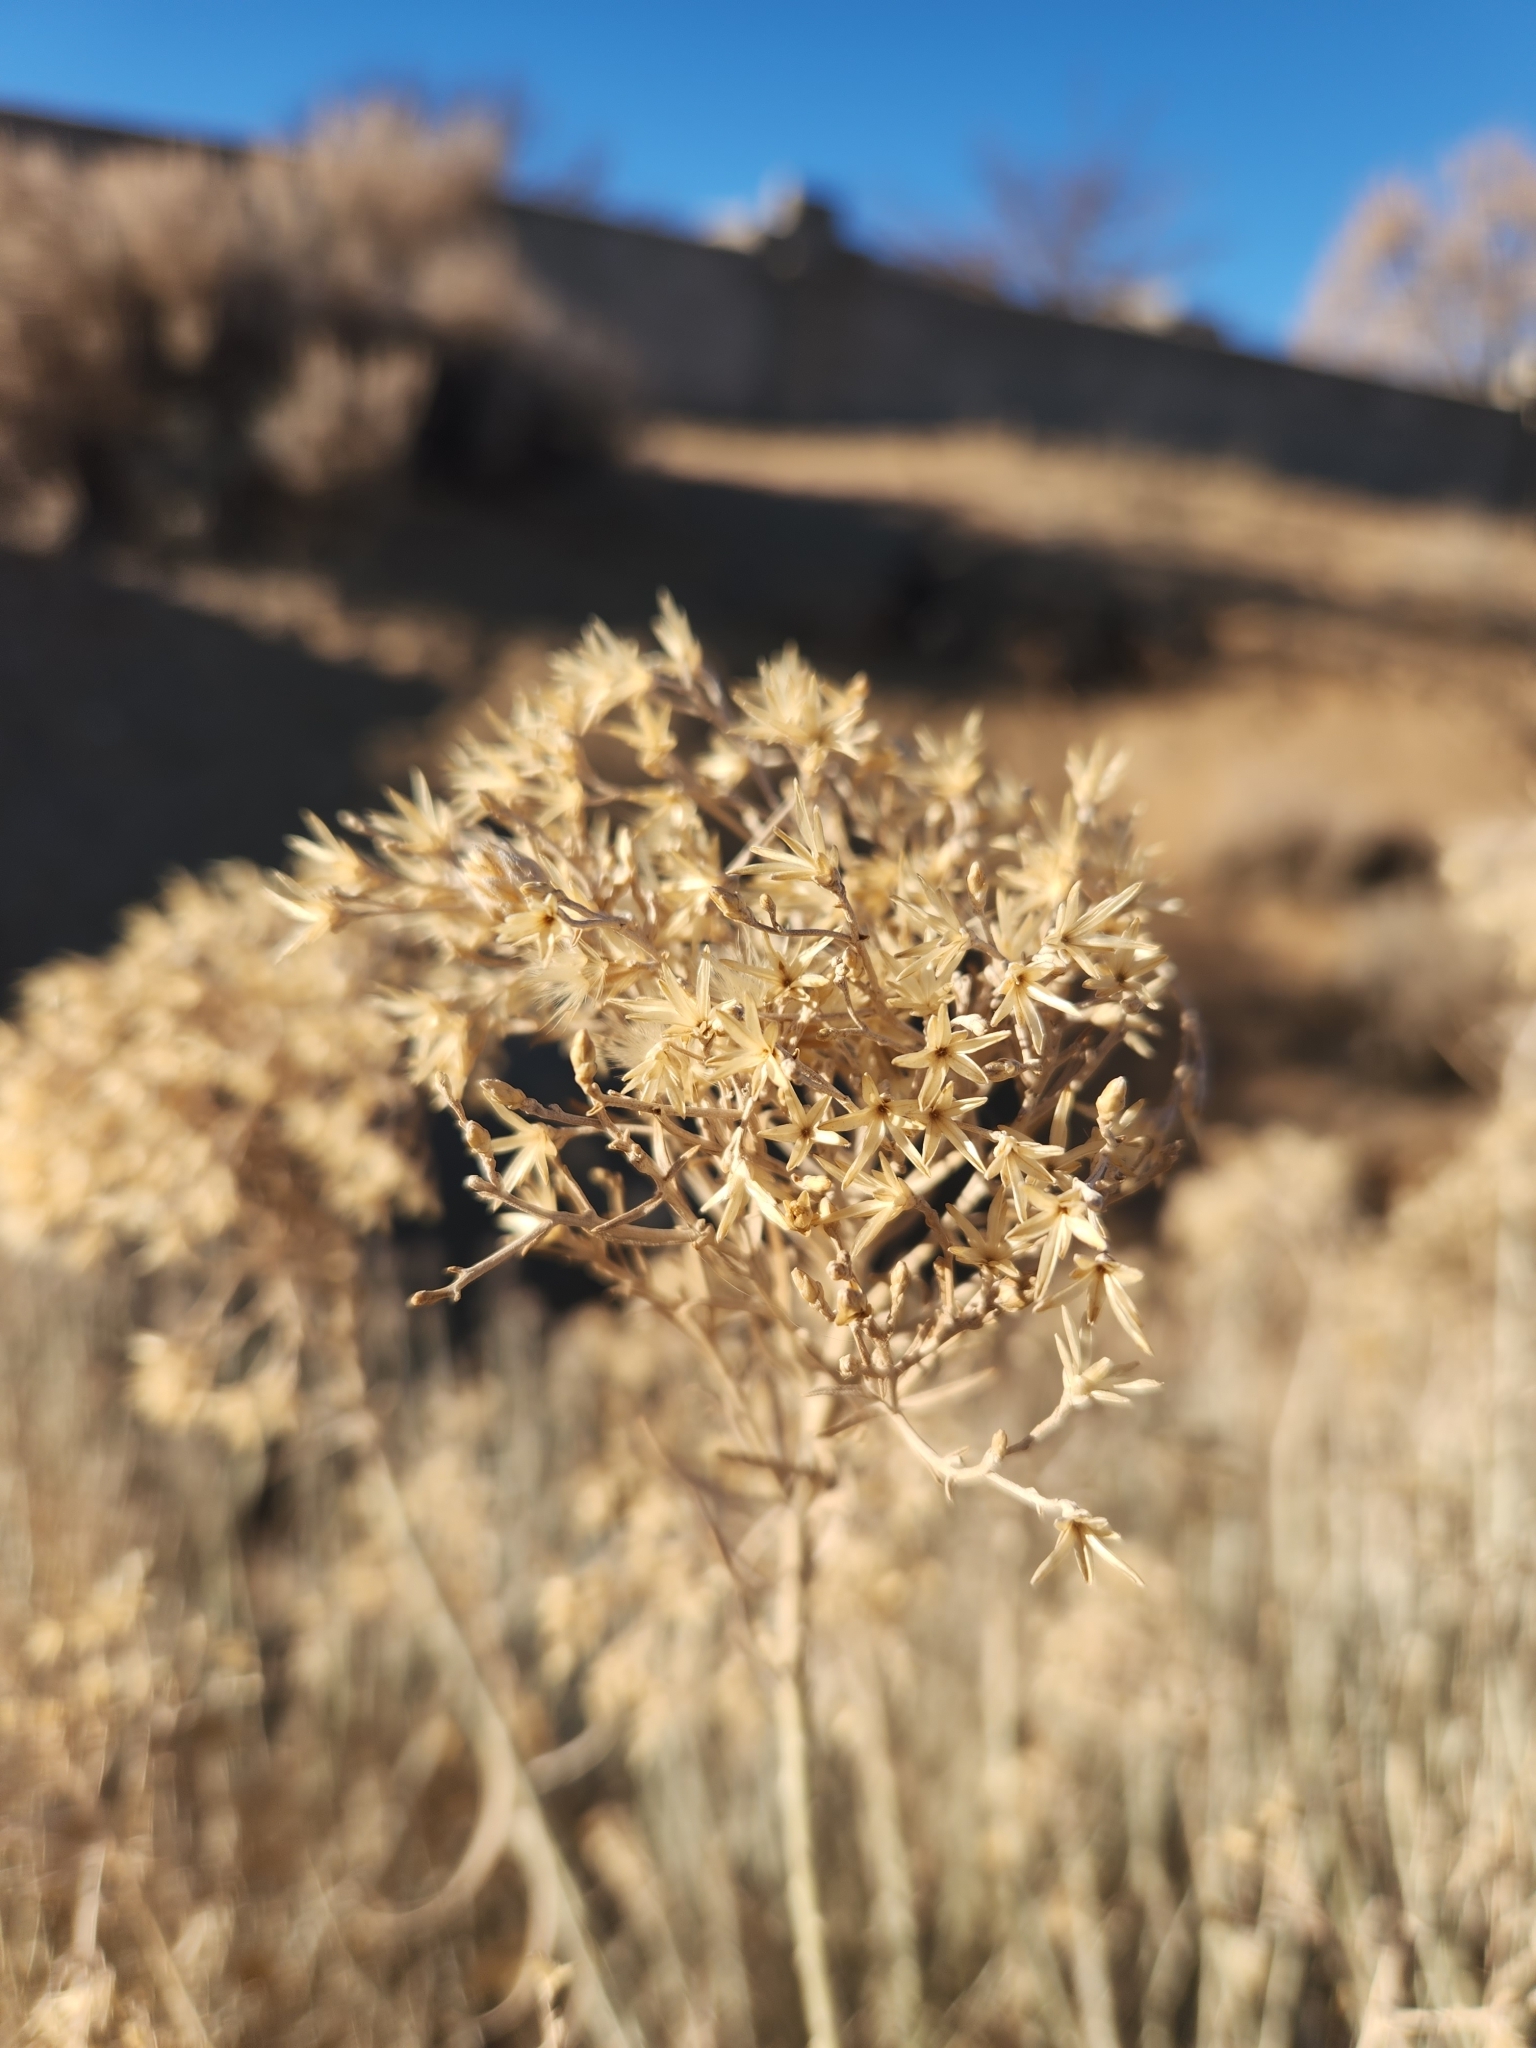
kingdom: Plantae
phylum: Tracheophyta
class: Magnoliopsida
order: Asterales
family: Asteraceae
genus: Ericameria
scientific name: Ericameria nauseosa
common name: Rubber rabbitbrush
